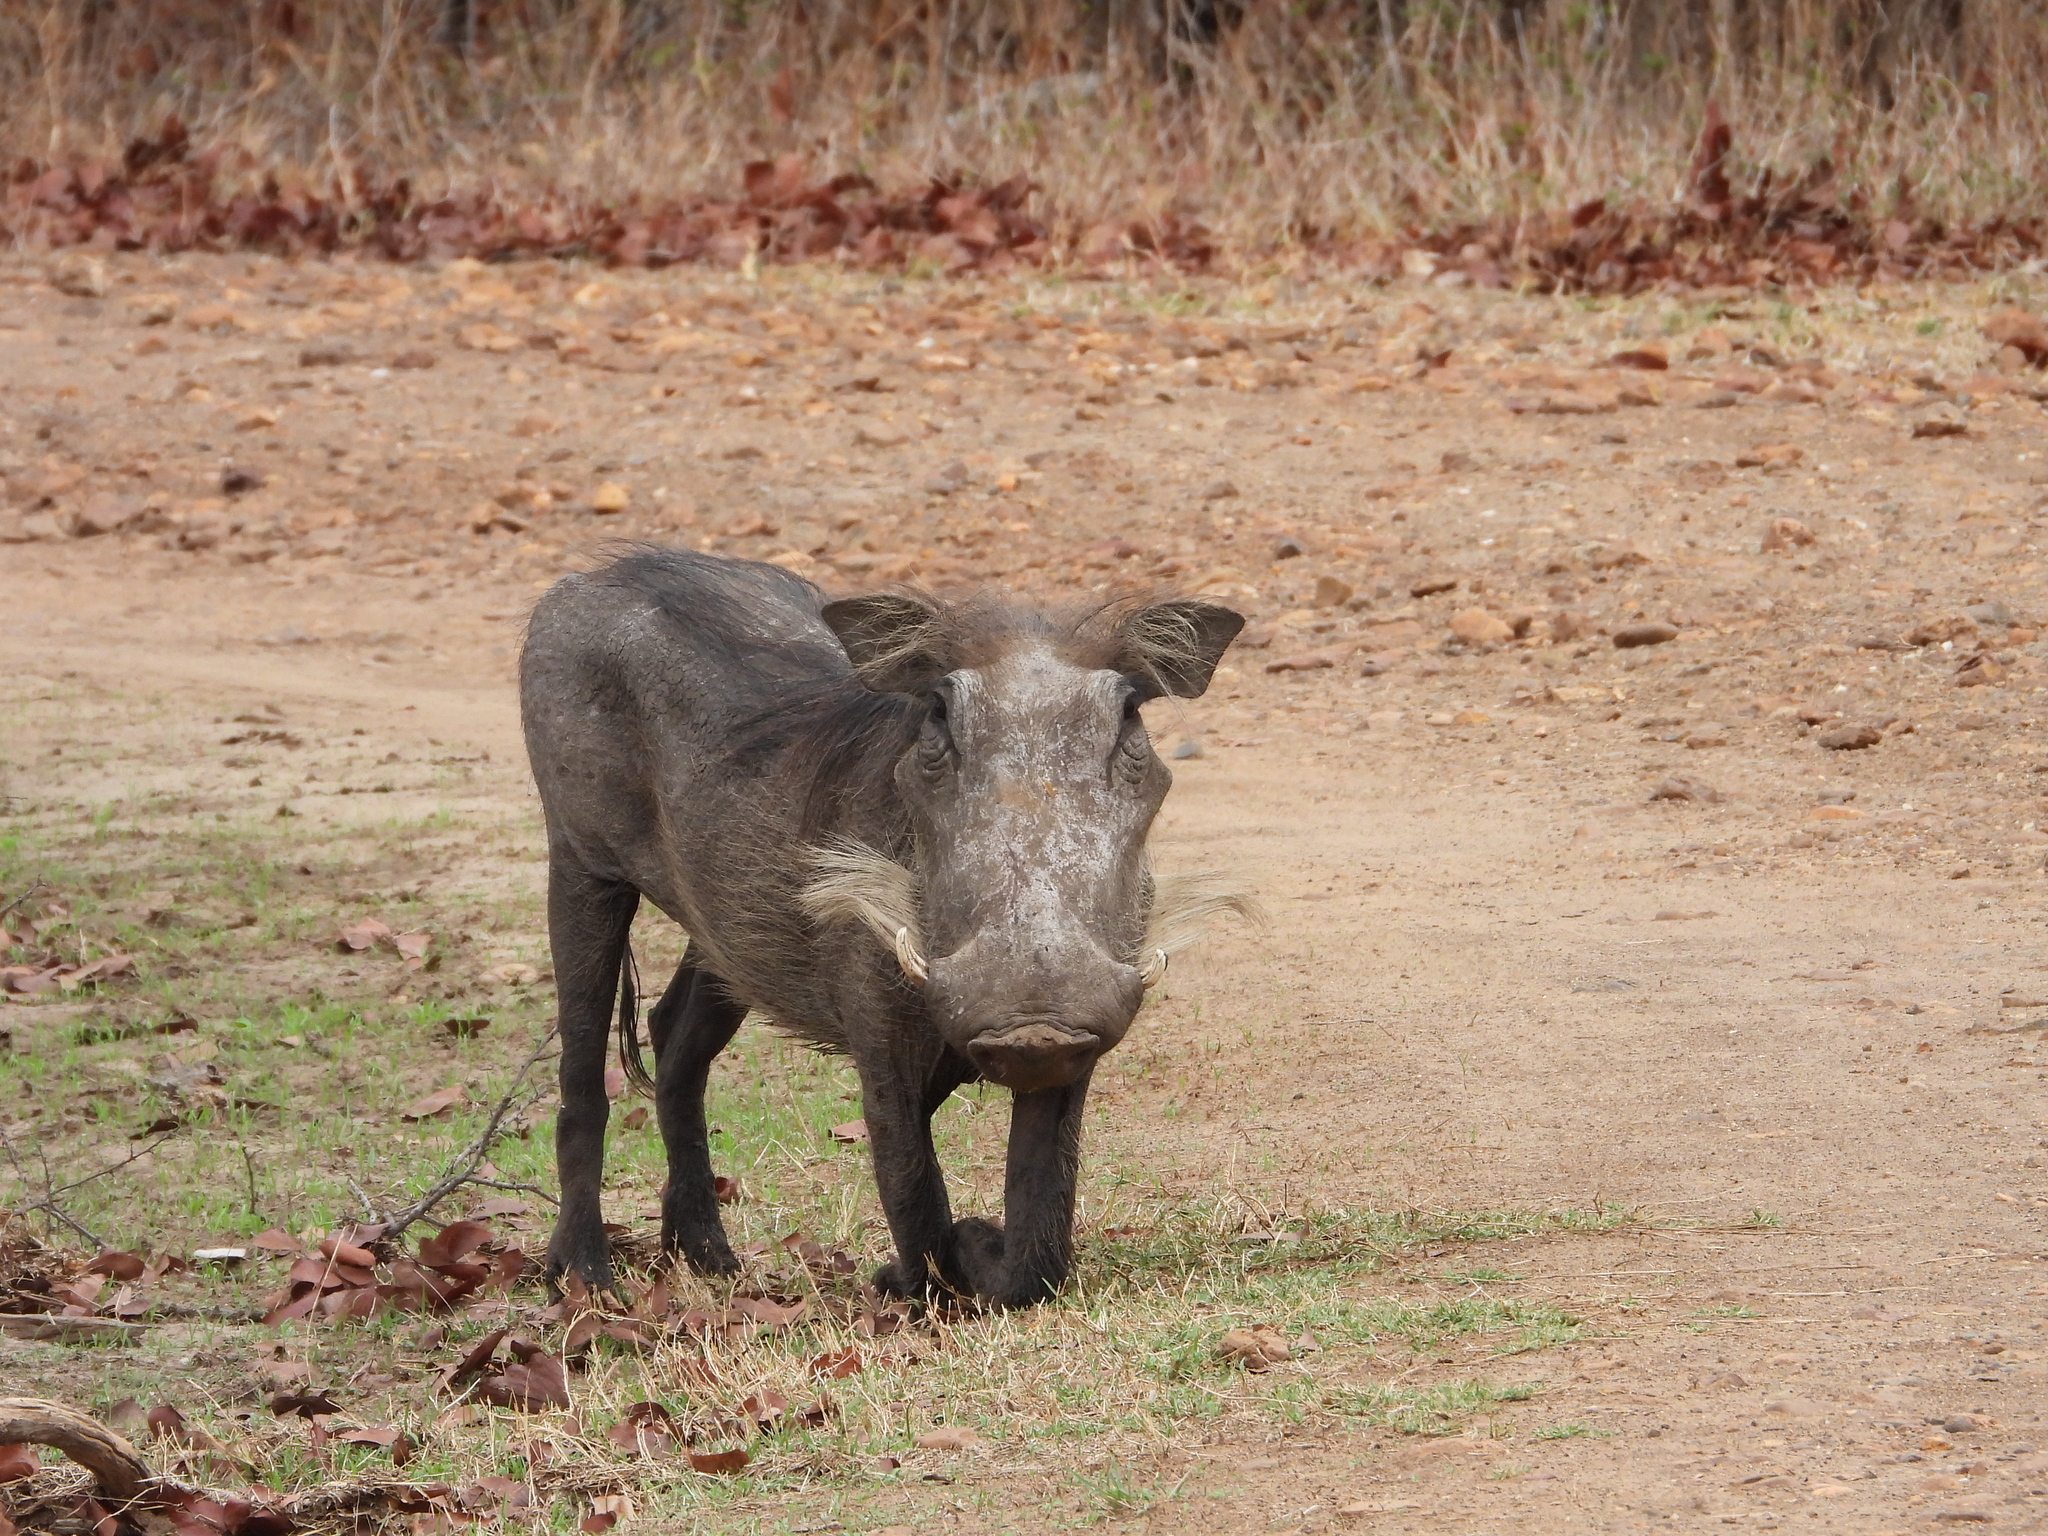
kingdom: Animalia
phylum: Chordata
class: Mammalia
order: Artiodactyla
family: Suidae
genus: Phacochoerus
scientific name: Phacochoerus africanus
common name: Common warthog
